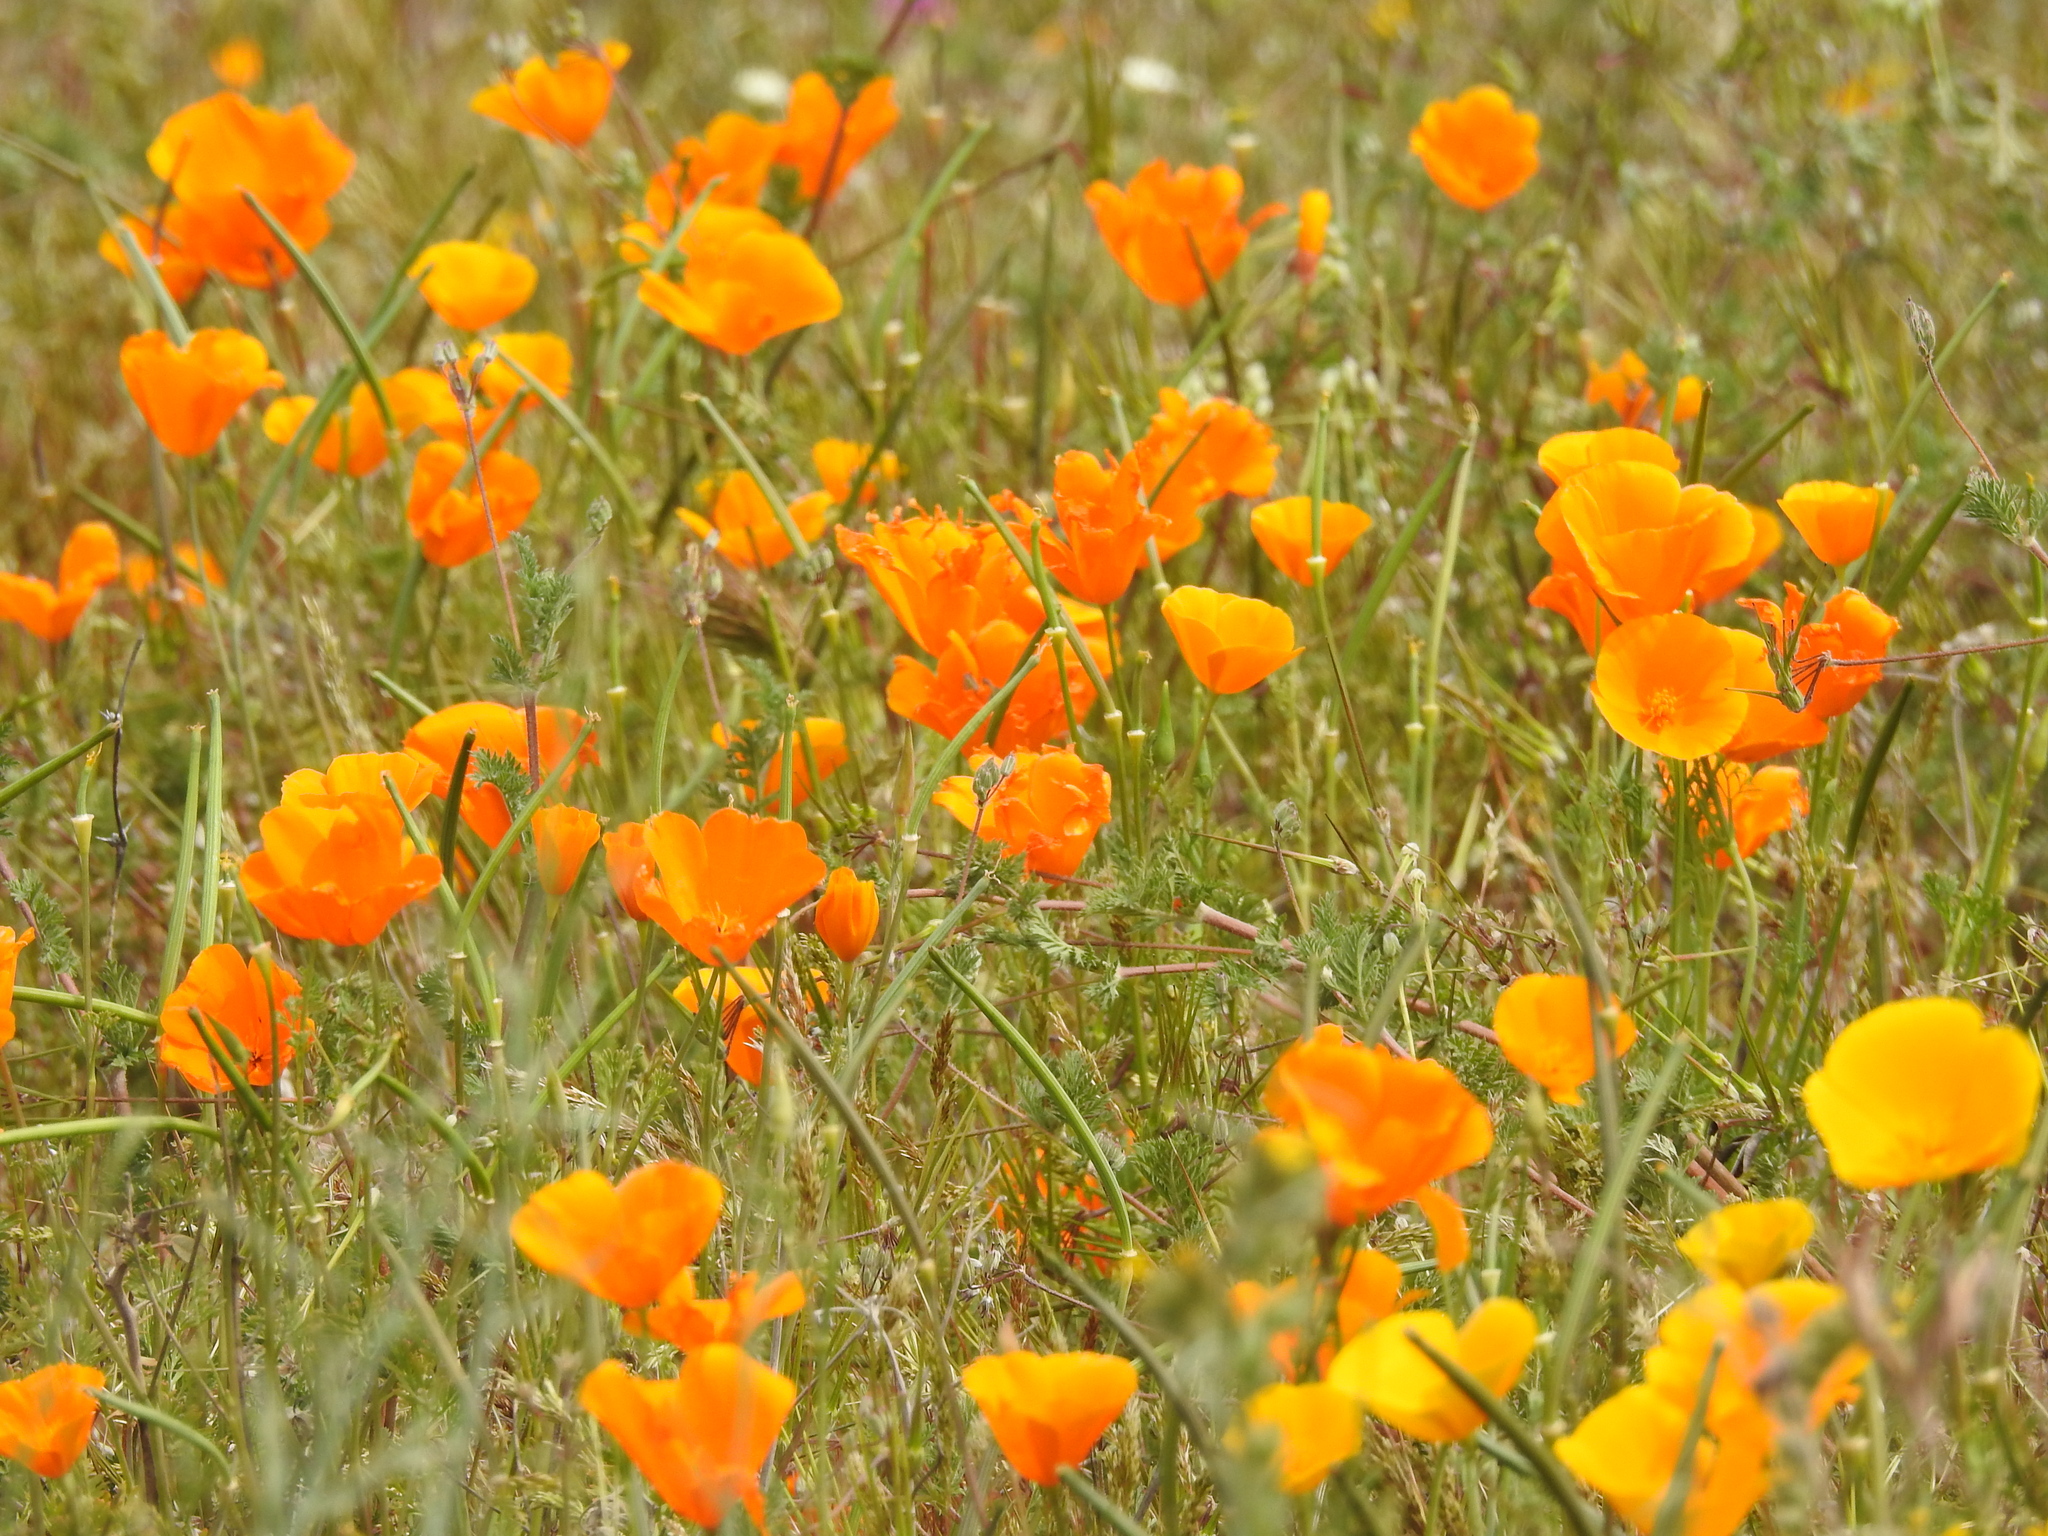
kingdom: Plantae
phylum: Tracheophyta
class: Magnoliopsida
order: Ranunculales
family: Papaveraceae
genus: Eschscholzia
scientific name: Eschscholzia californica
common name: California poppy
